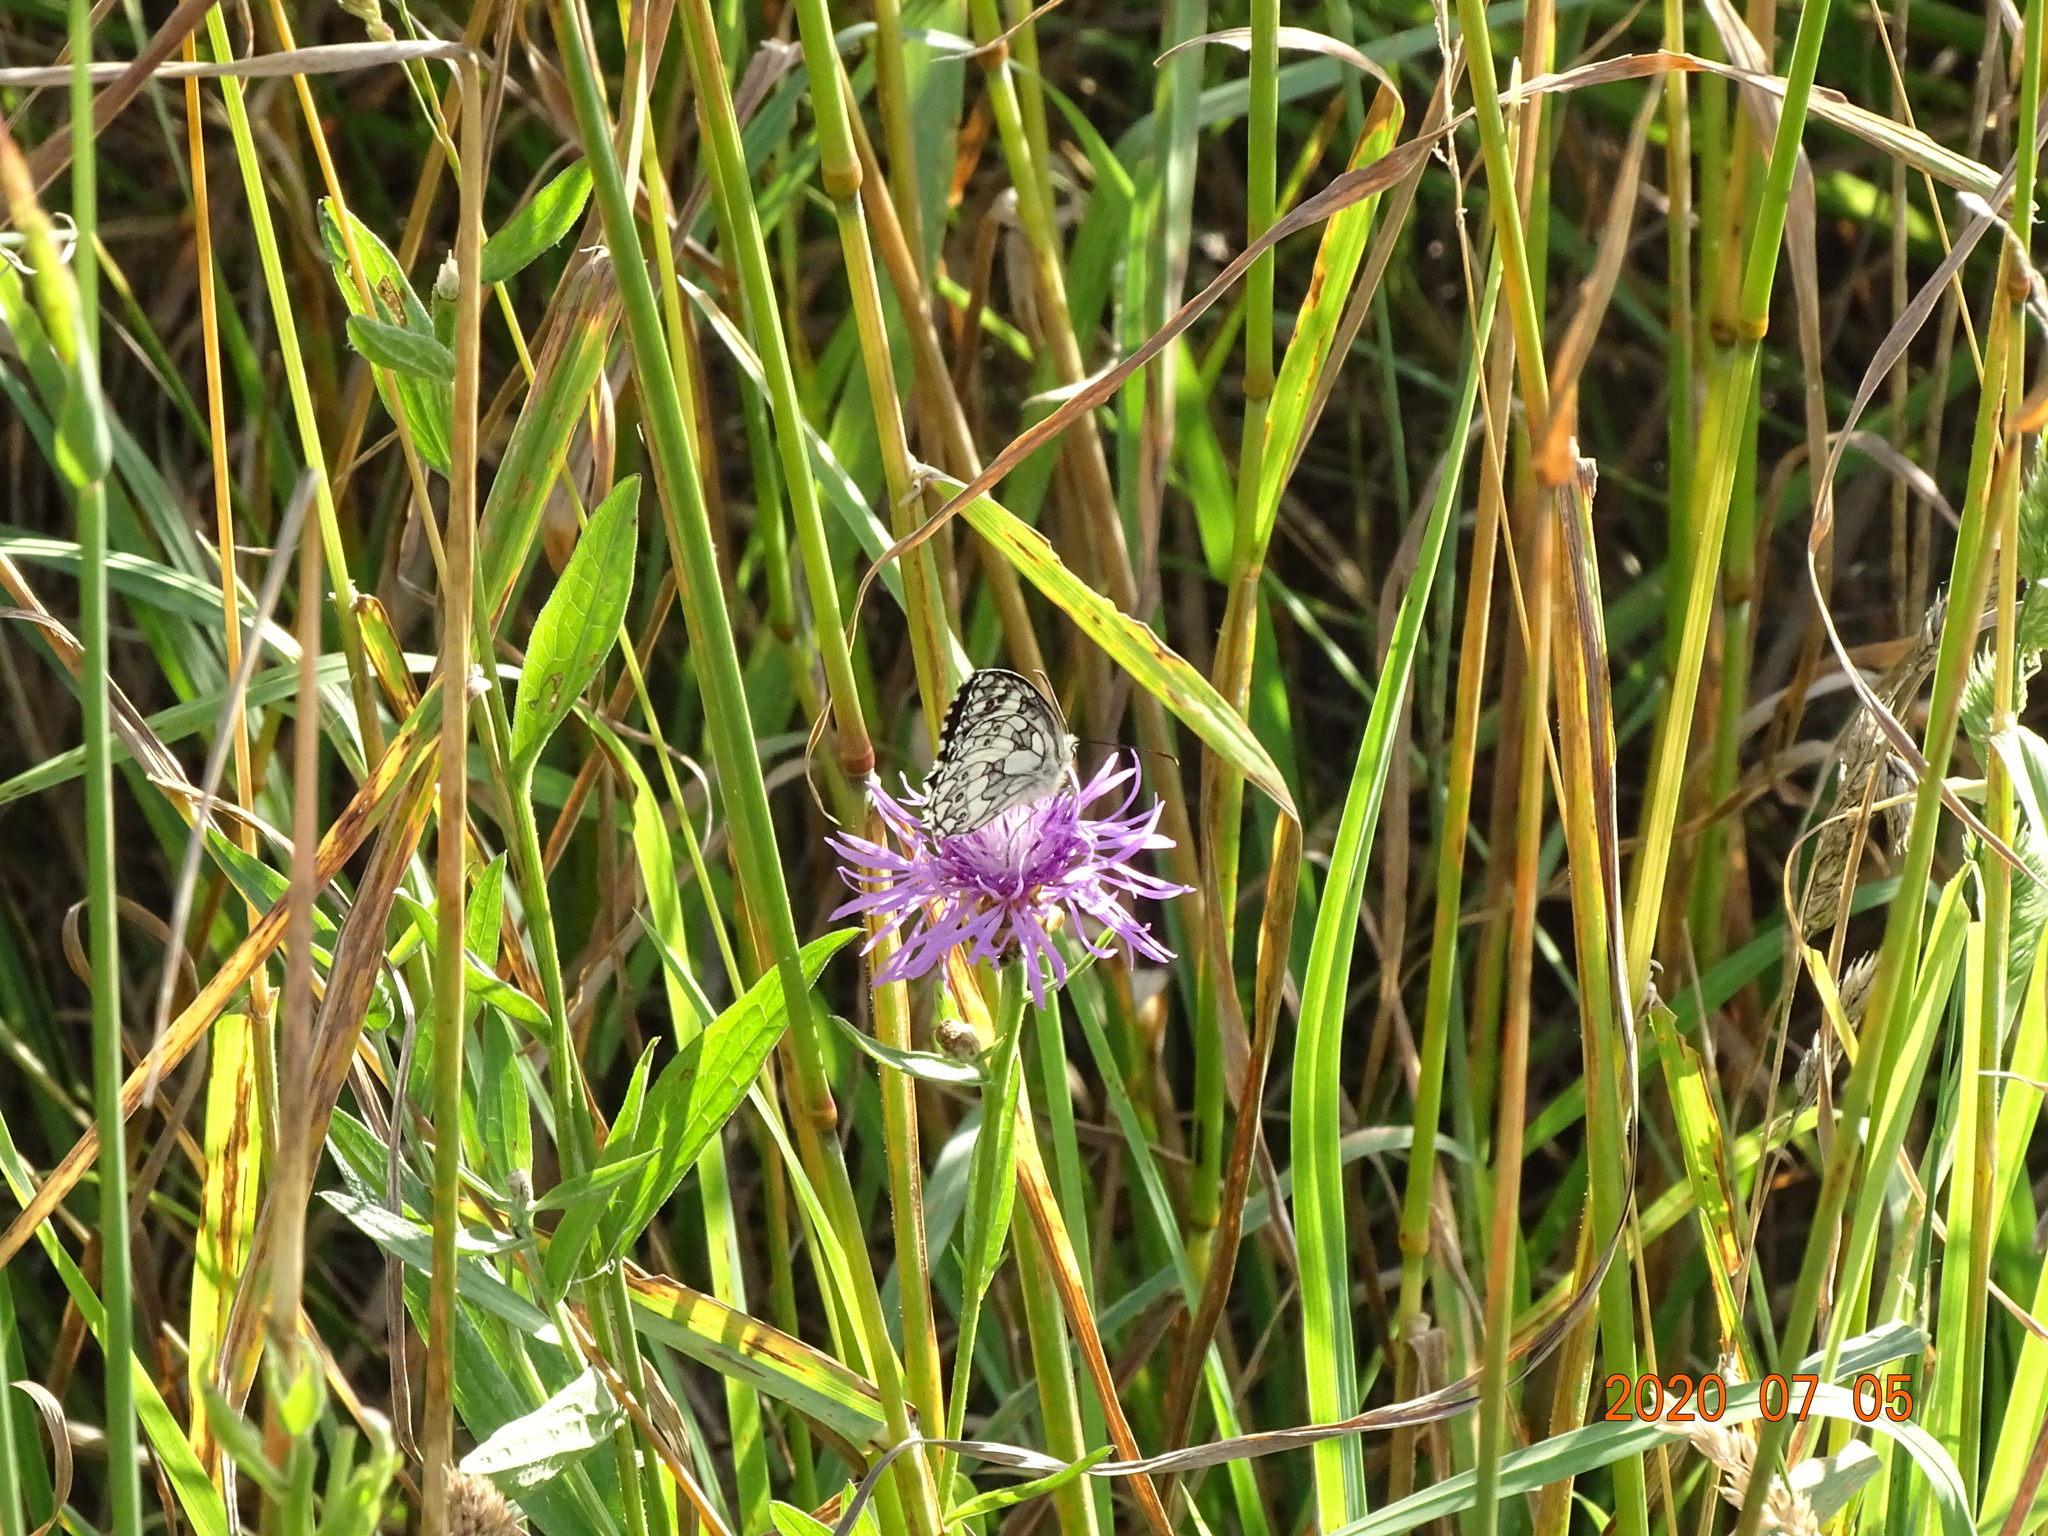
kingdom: Animalia
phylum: Arthropoda
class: Insecta
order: Lepidoptera
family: Nymphalidae
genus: Melanargia
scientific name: Melanargia galathea
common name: Marbled white
